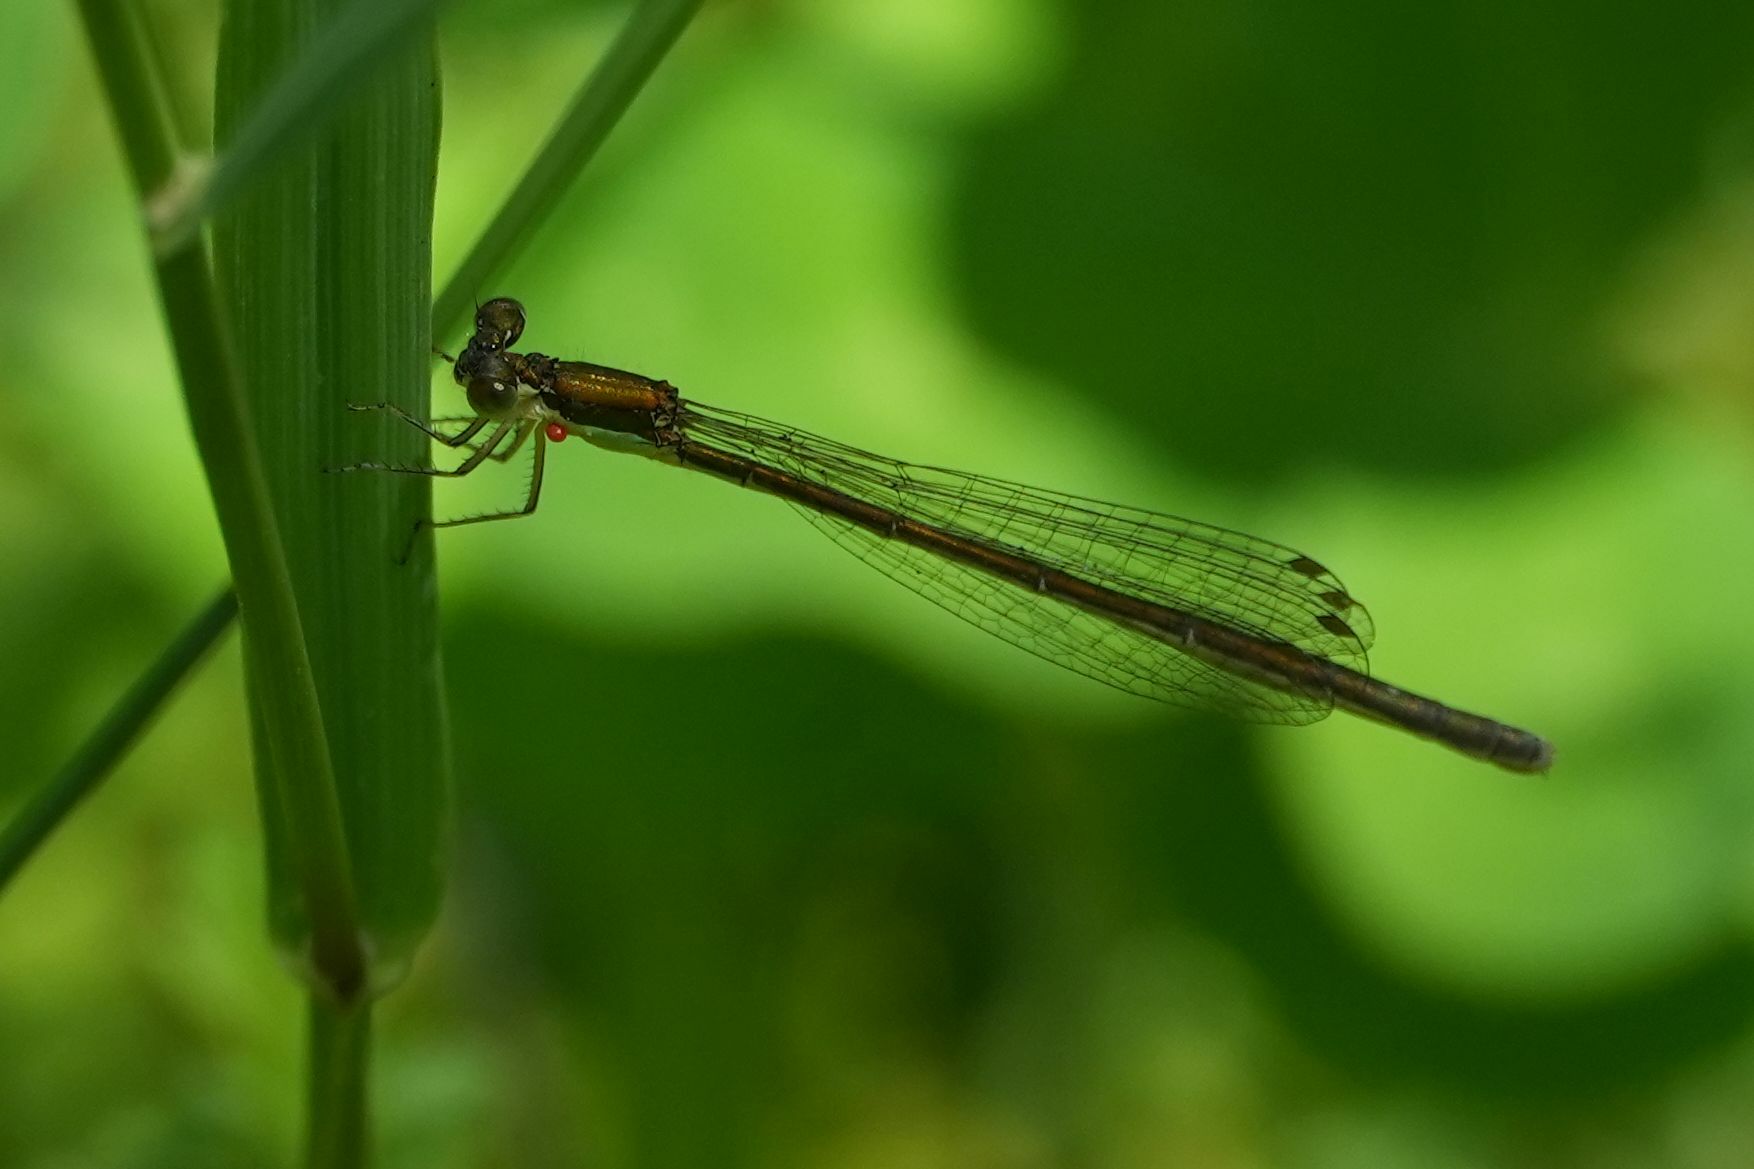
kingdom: Animalia
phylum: Arthropoda
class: Insecta
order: Odonata
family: Coenagrionidae
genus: Nehalennia
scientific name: Nehalennia irene
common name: Sedge sprite
